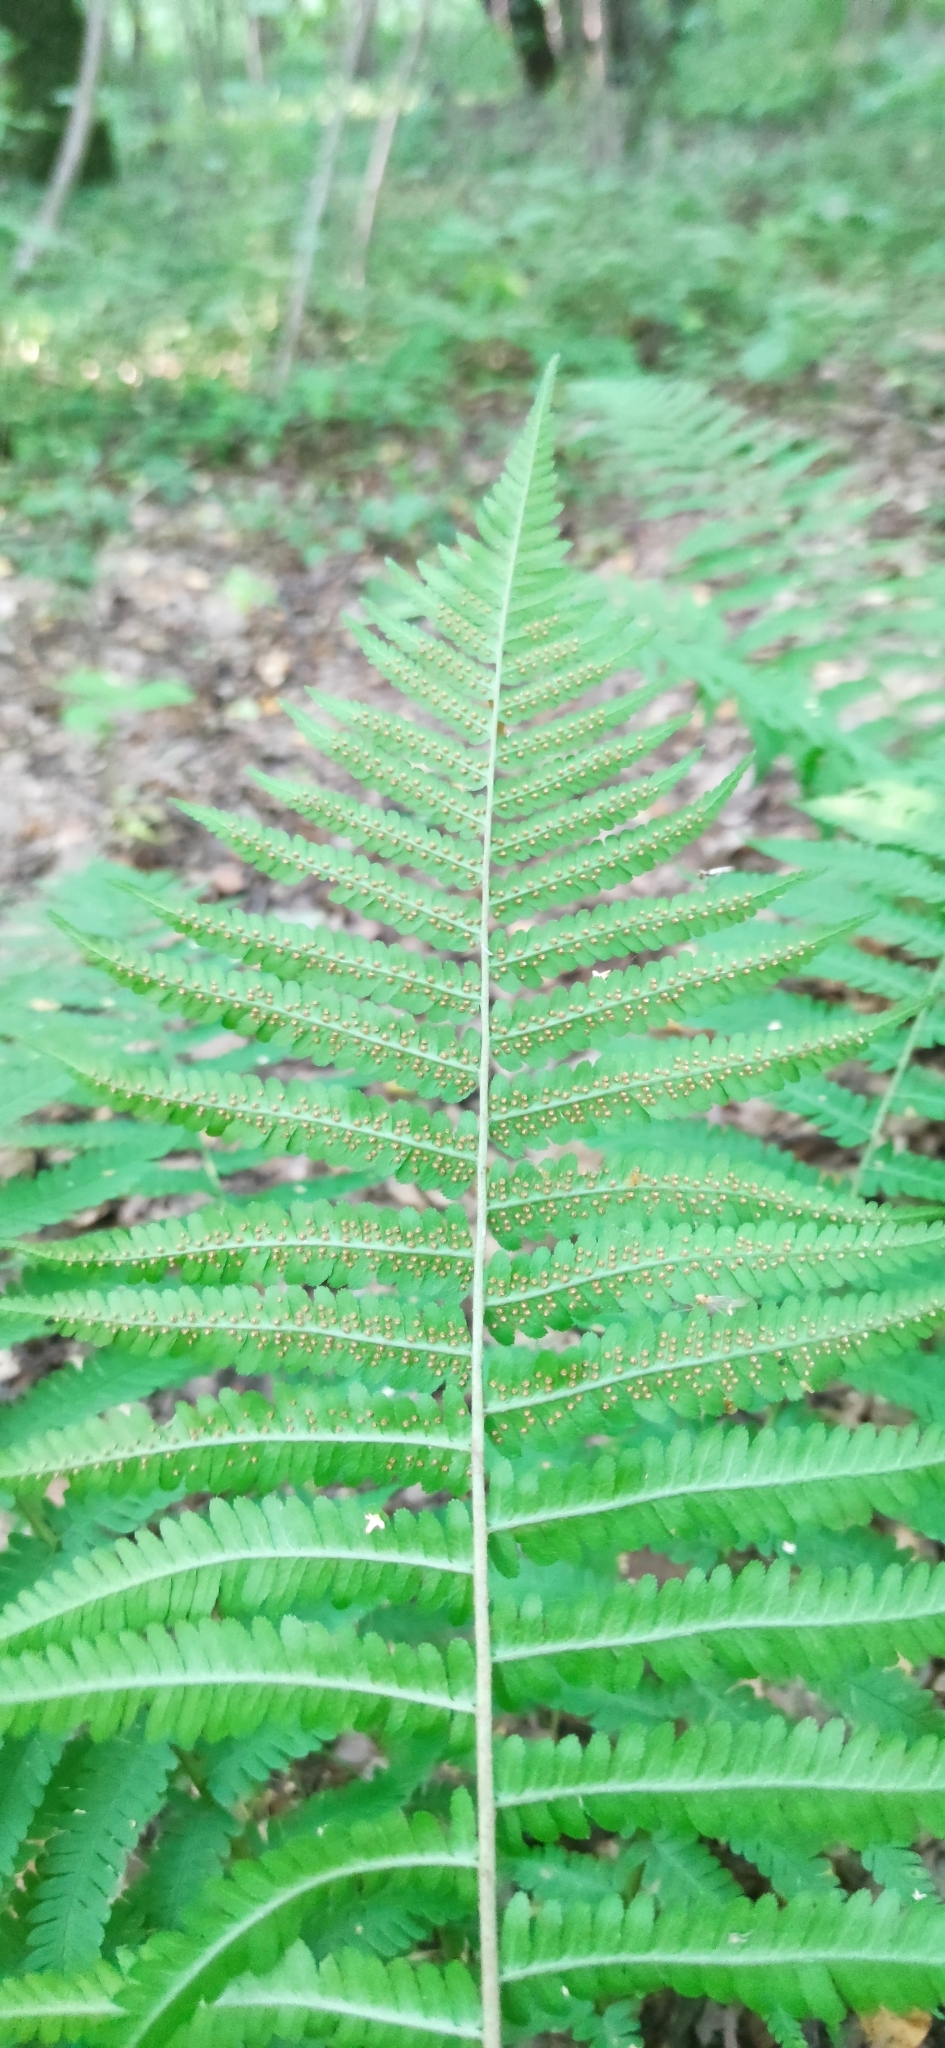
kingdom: Plantae
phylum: Tracheophyta
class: Polypodiopsida
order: Polypodiales
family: Dryopteridaceae
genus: Dryopteris
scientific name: Dryopteris filix-mas
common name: Male fern
